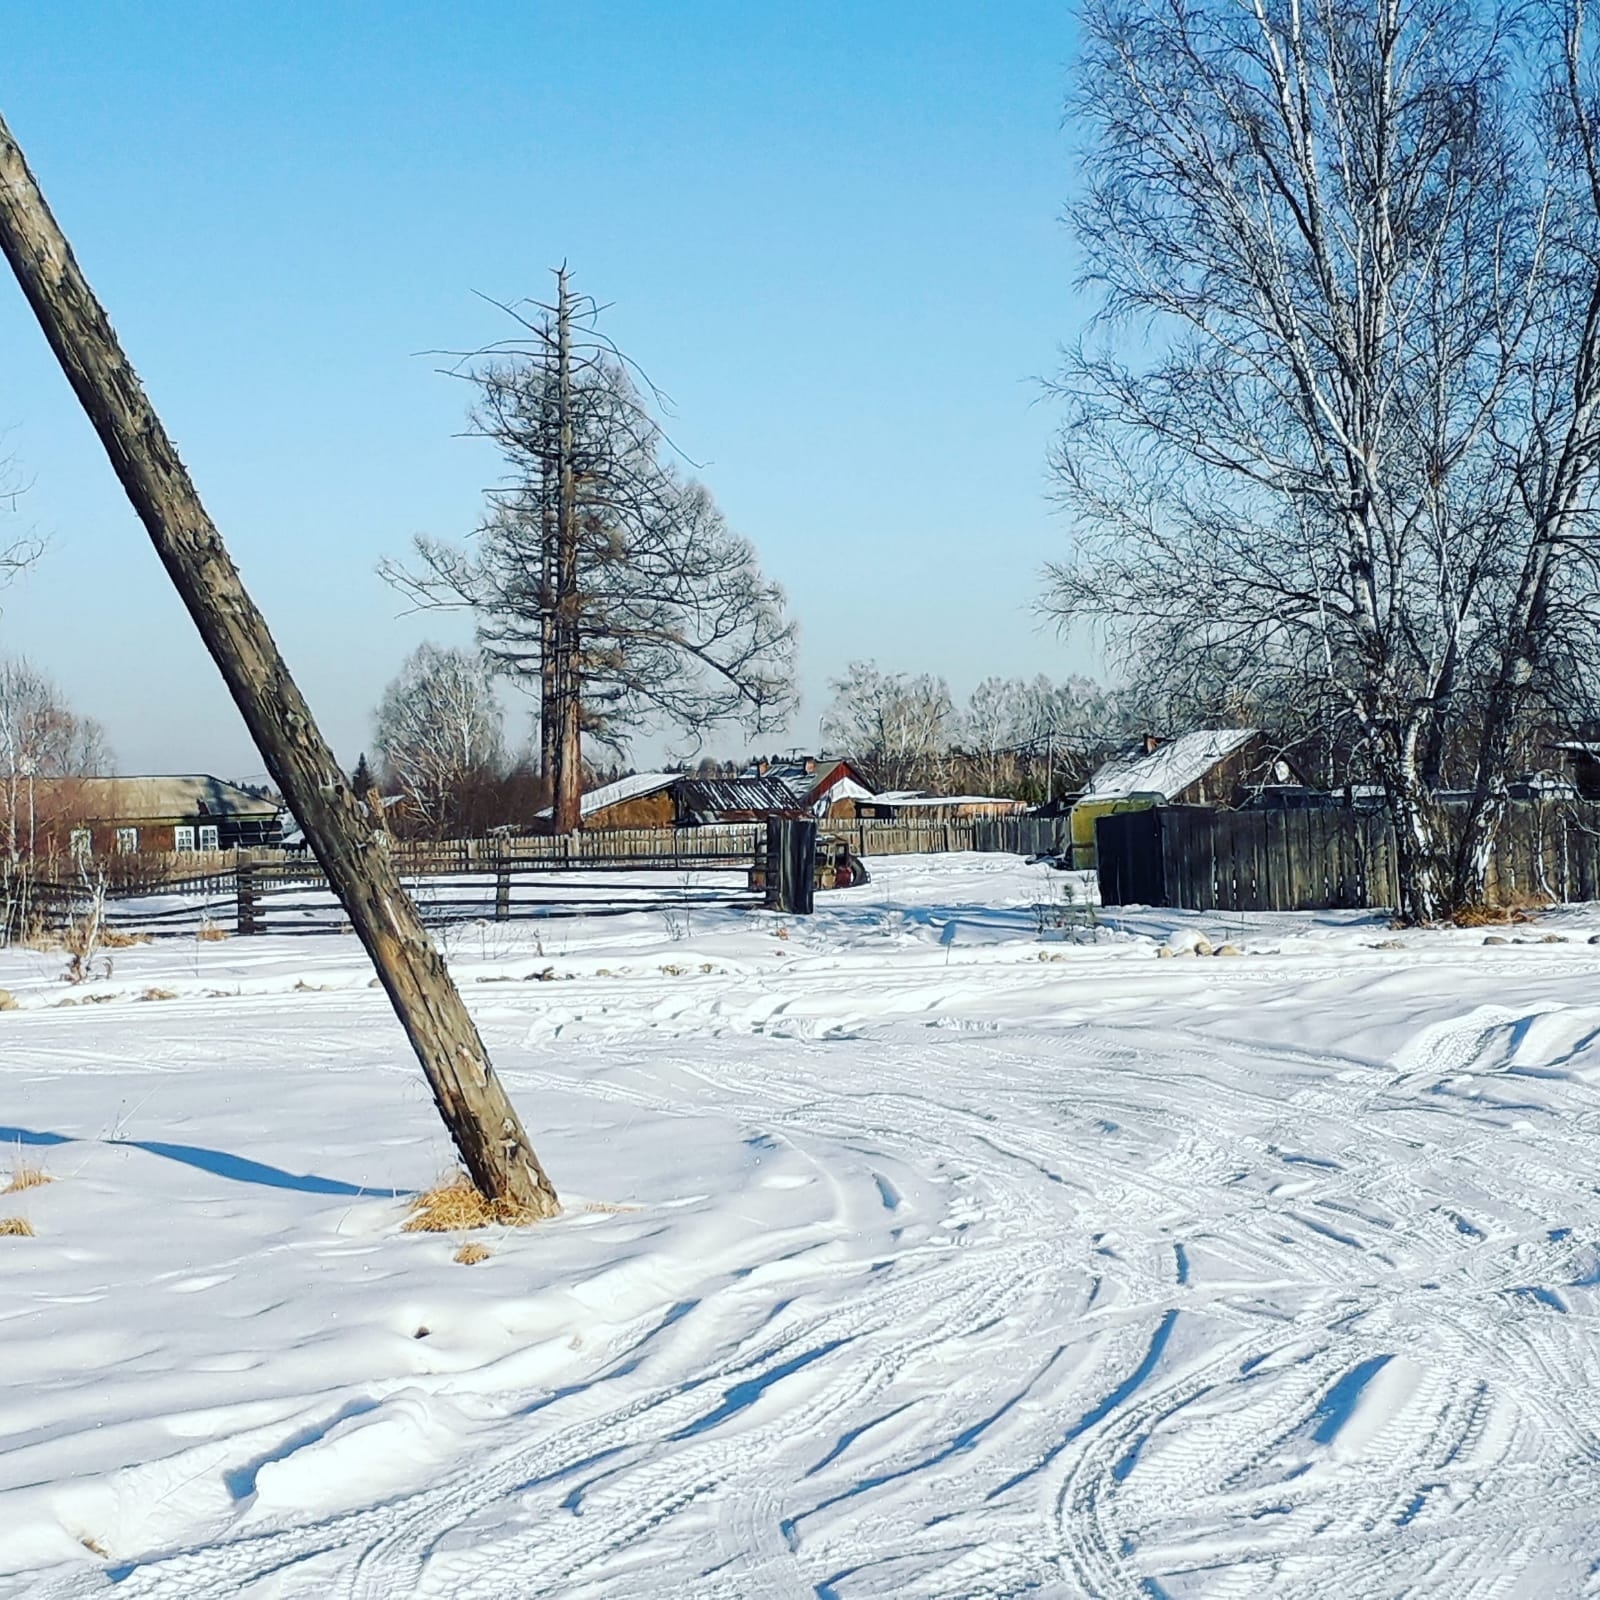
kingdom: Plantae
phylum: Tracheophyta
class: Pinopsida
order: Pinales
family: Pinaceae
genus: Larix
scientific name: Larix sibirica
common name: Siberian larch
